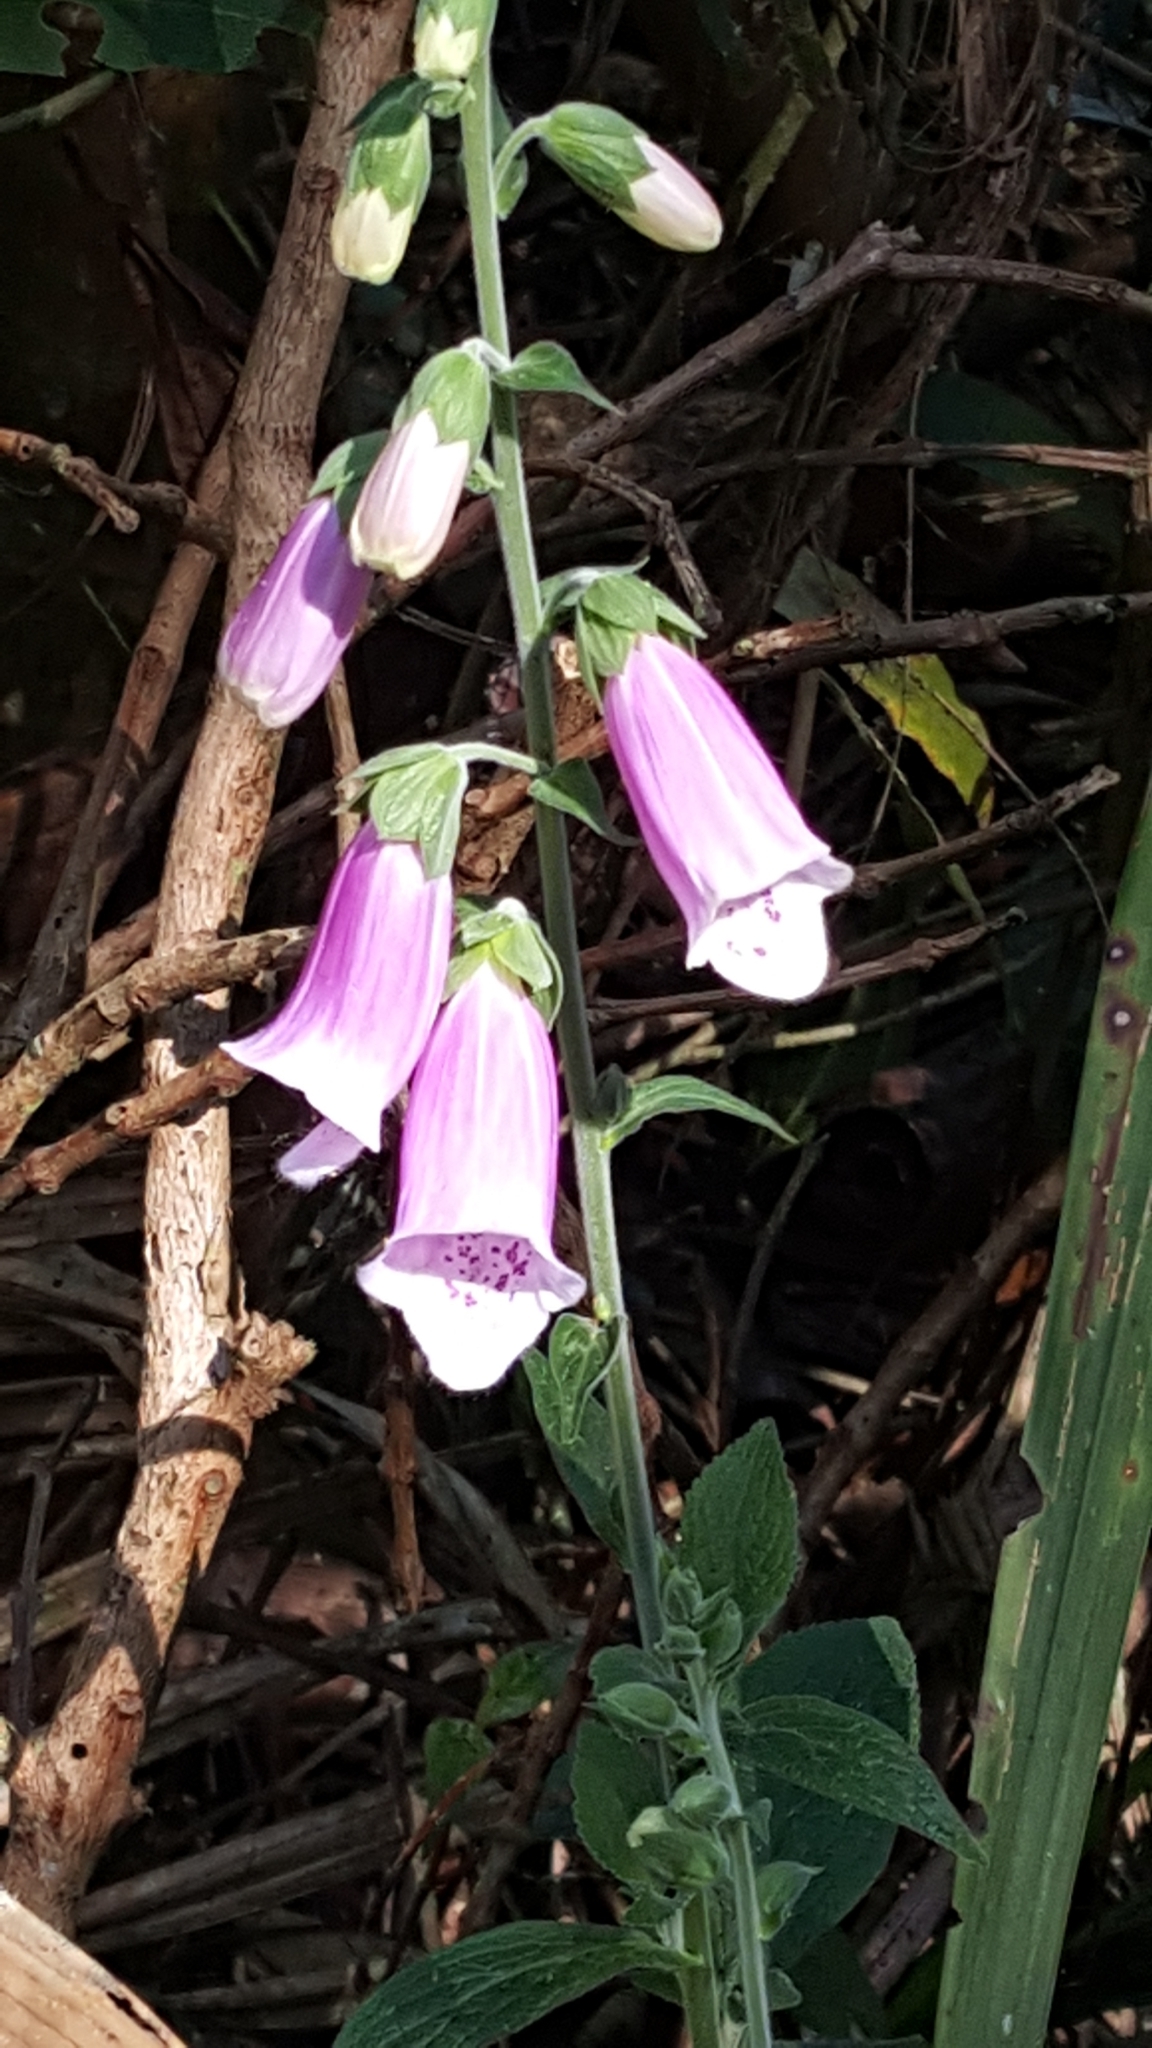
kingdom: Plantae
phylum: Tracheophyta
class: Magnoliopsida
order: Lamiales
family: Plantaginaceae
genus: Digitalis
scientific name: Digitalis purpurea
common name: Foxglove
